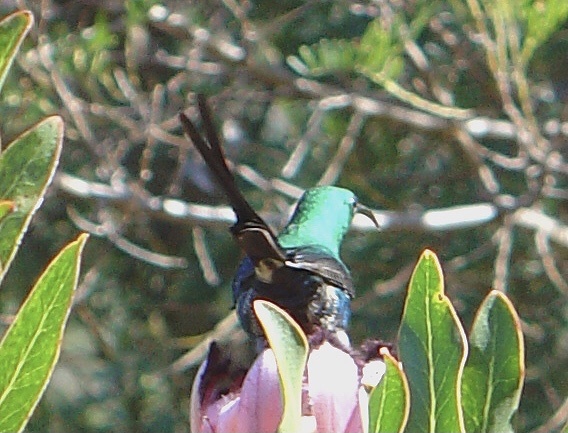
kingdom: Animalia
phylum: Chordata
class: Aves
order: Passeriformes
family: Nectariniidae
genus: Nectarinia
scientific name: Nectarinia famosa
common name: Malachite sunbird
